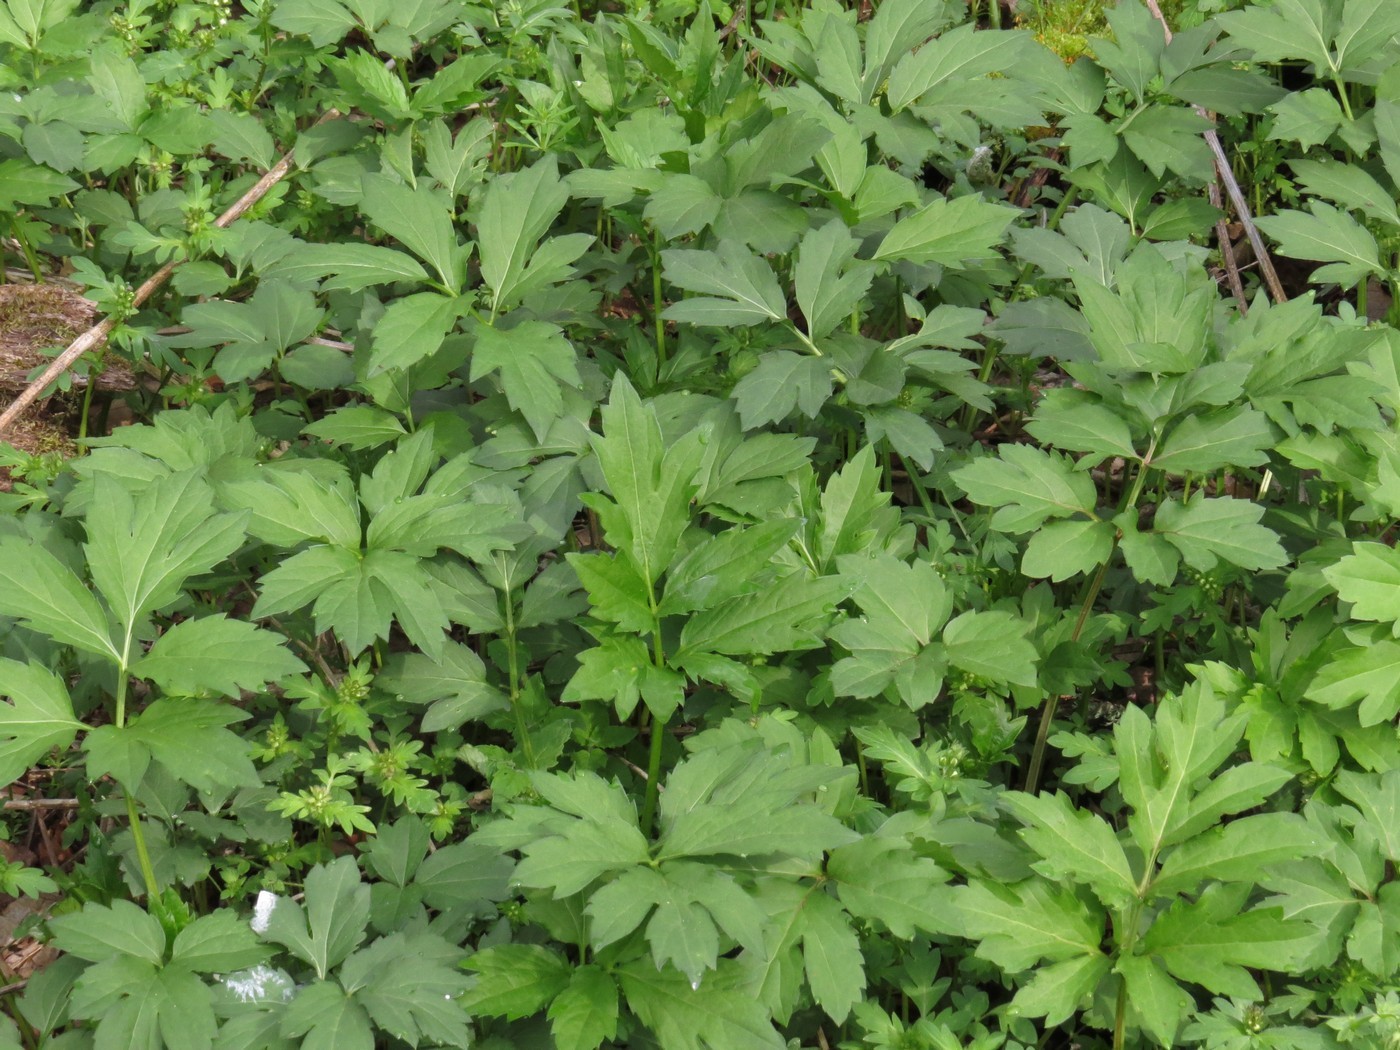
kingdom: Plantae
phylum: Tracheophyta
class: Magnoliopsida
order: Asterales
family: Asteraceae
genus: Rudbeckia
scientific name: Rudbeckia laciniata
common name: Coneflower
